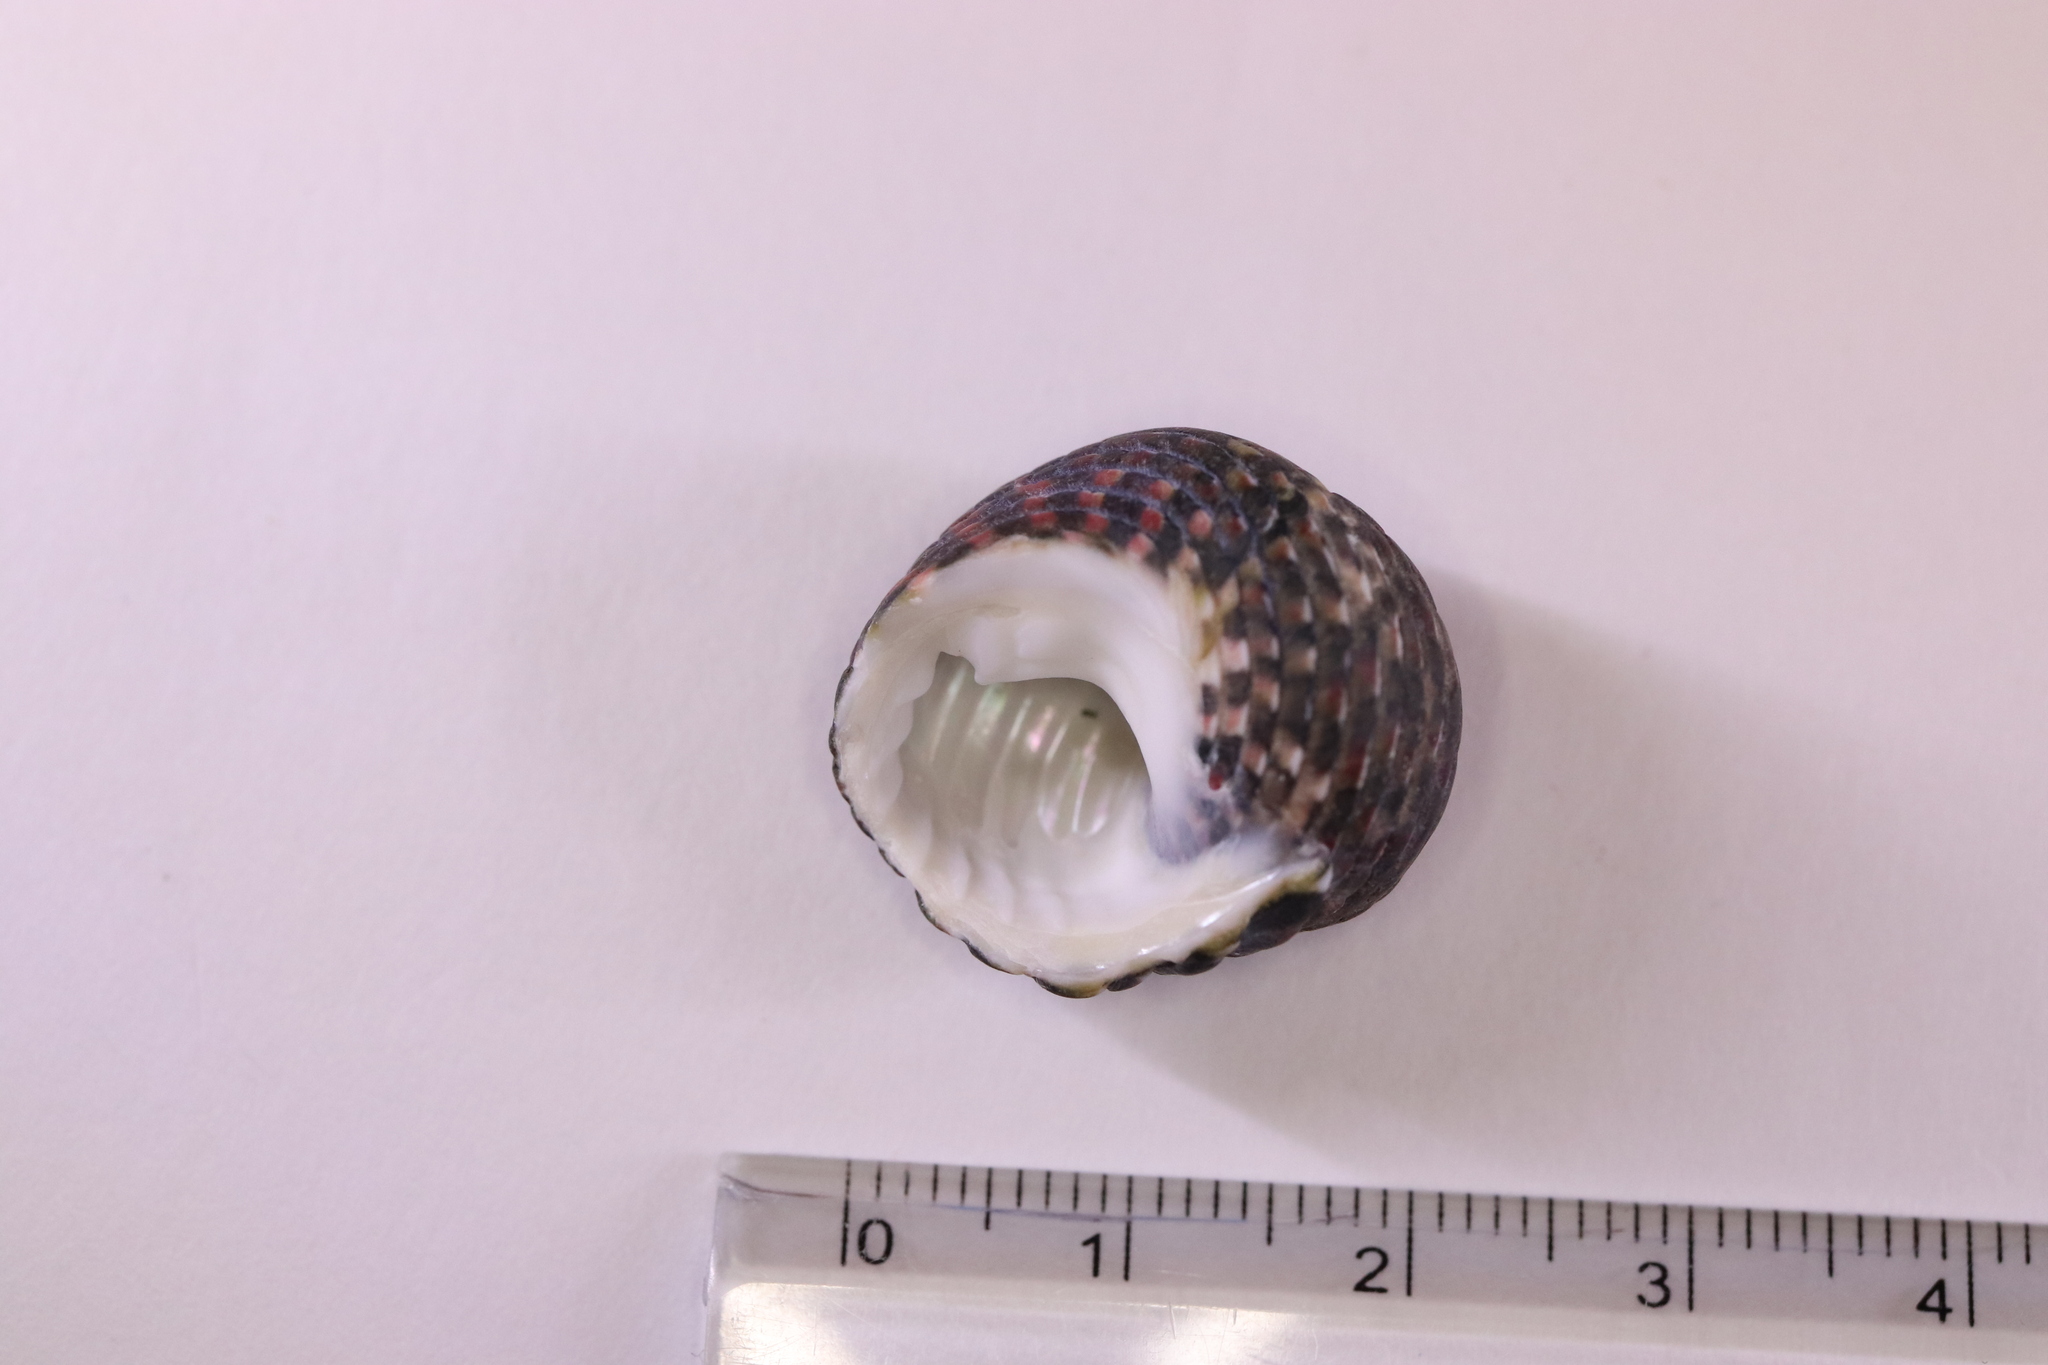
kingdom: Animalia
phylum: Mollusca
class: Gastropoda
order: Trochida
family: Trochidae
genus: Monodonta
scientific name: Monodonta confusa
